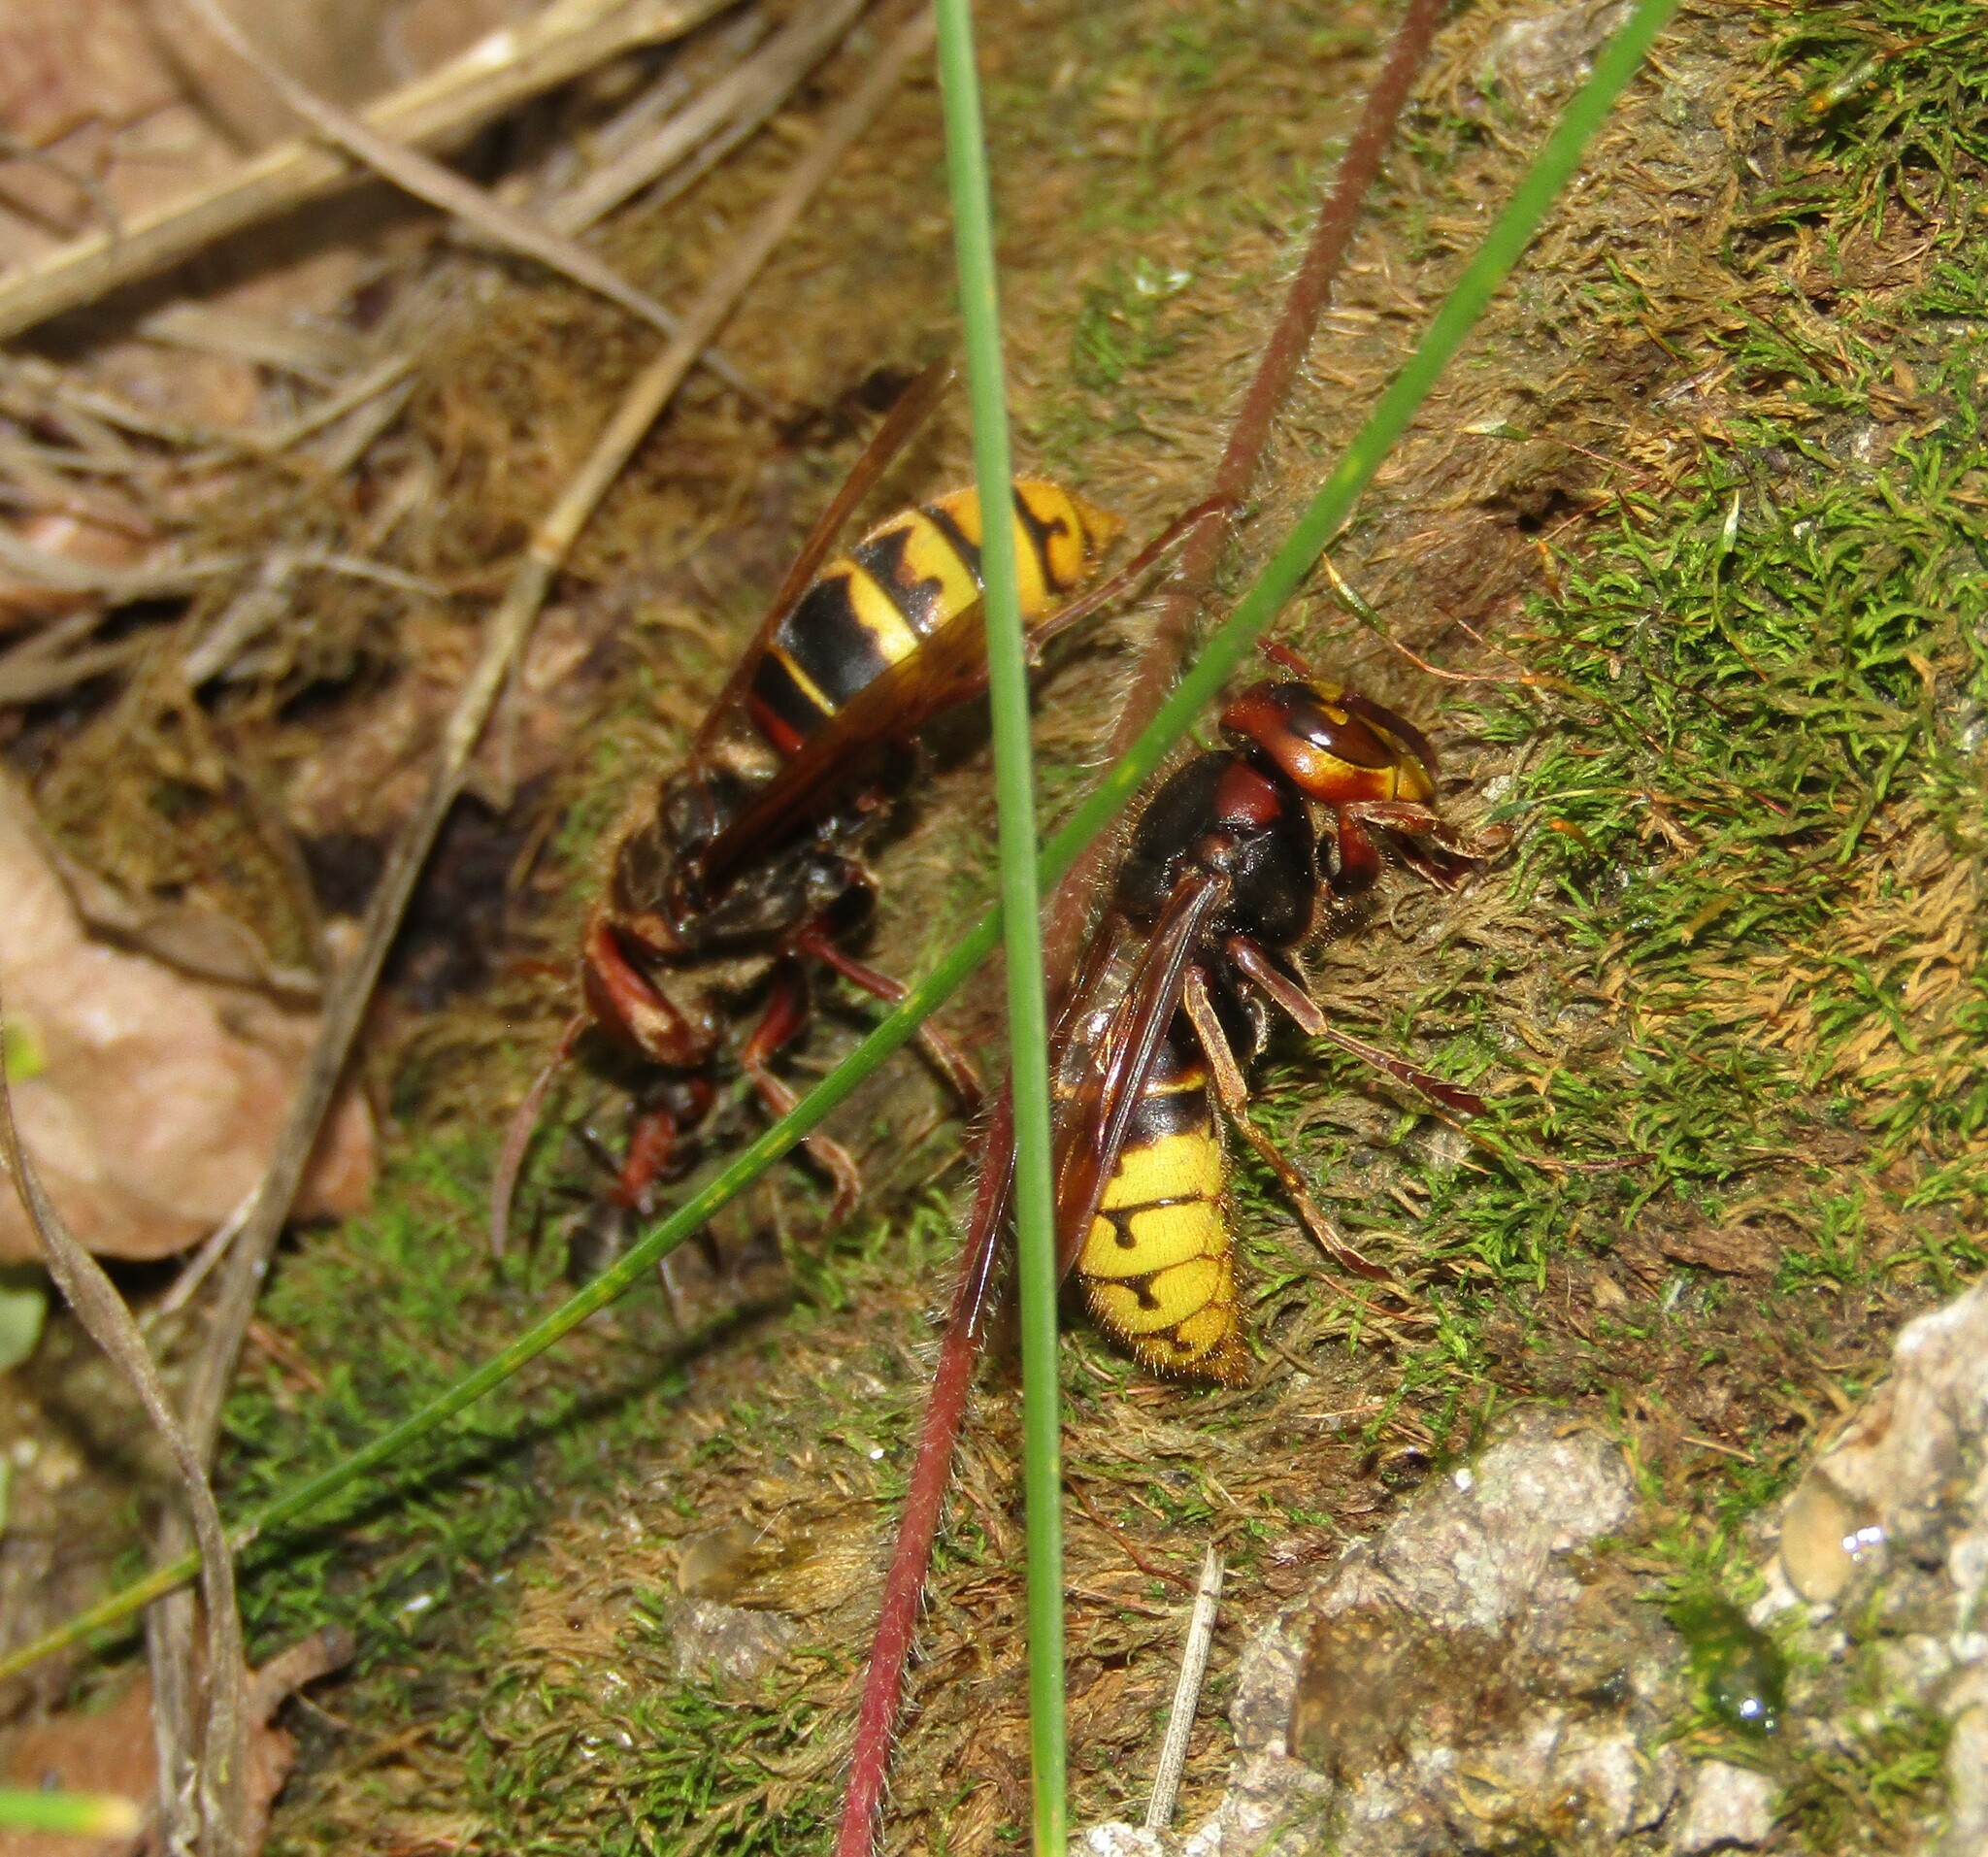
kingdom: Animalia
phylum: Arthropoda
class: Insecta
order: Hymenoptera
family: Vespidae
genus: Vespa
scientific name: Vespa crabro
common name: Hornet
